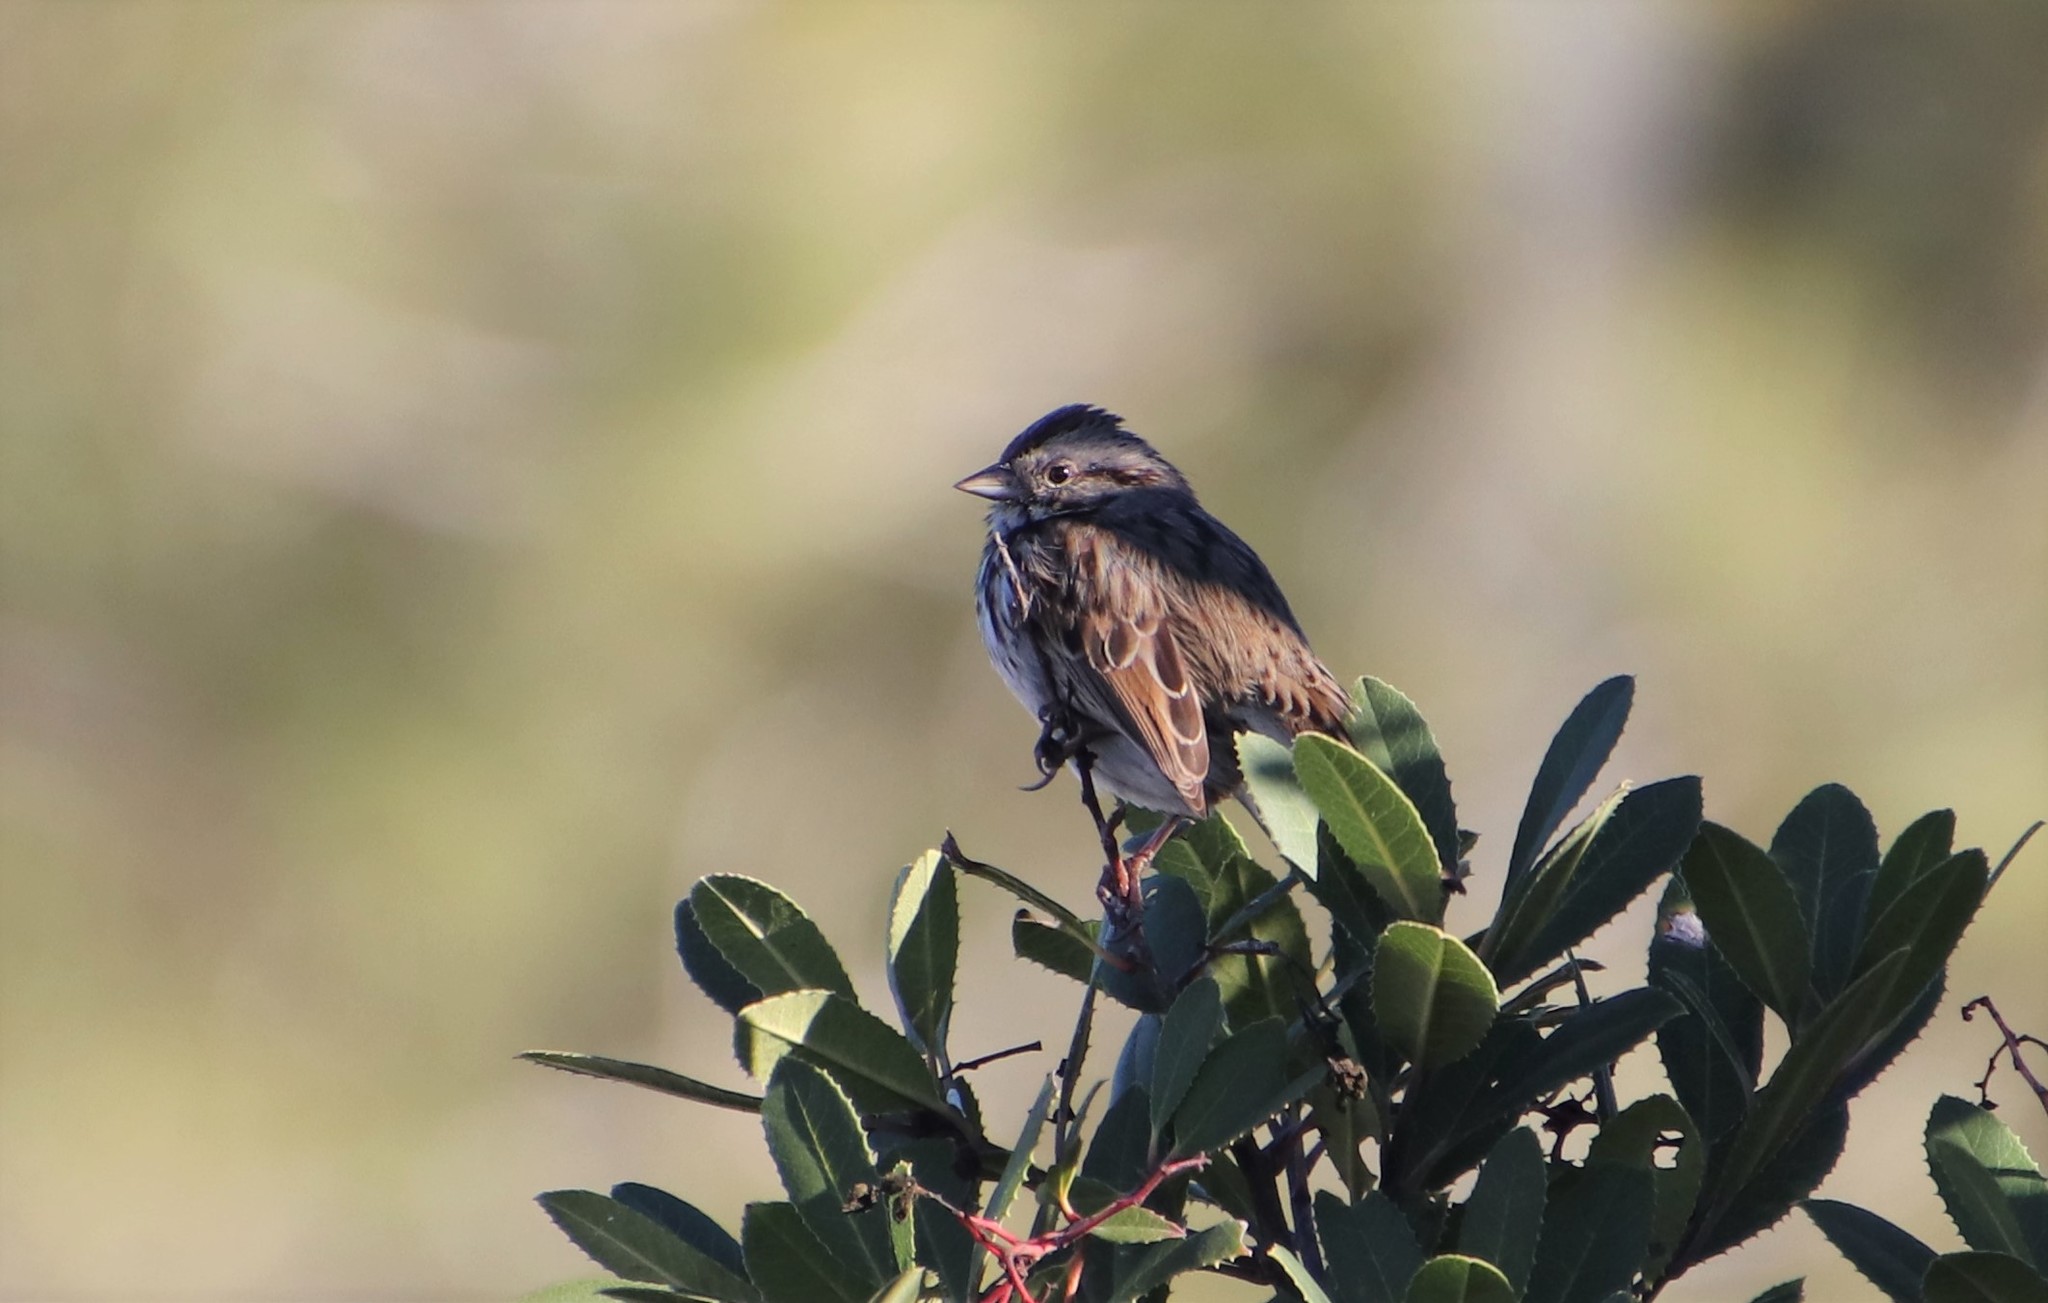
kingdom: Animalia
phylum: Chordata
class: Aves
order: Passeriformes
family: Passerellidae
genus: Melospiza
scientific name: Melospiza melodia
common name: Song sparrow
